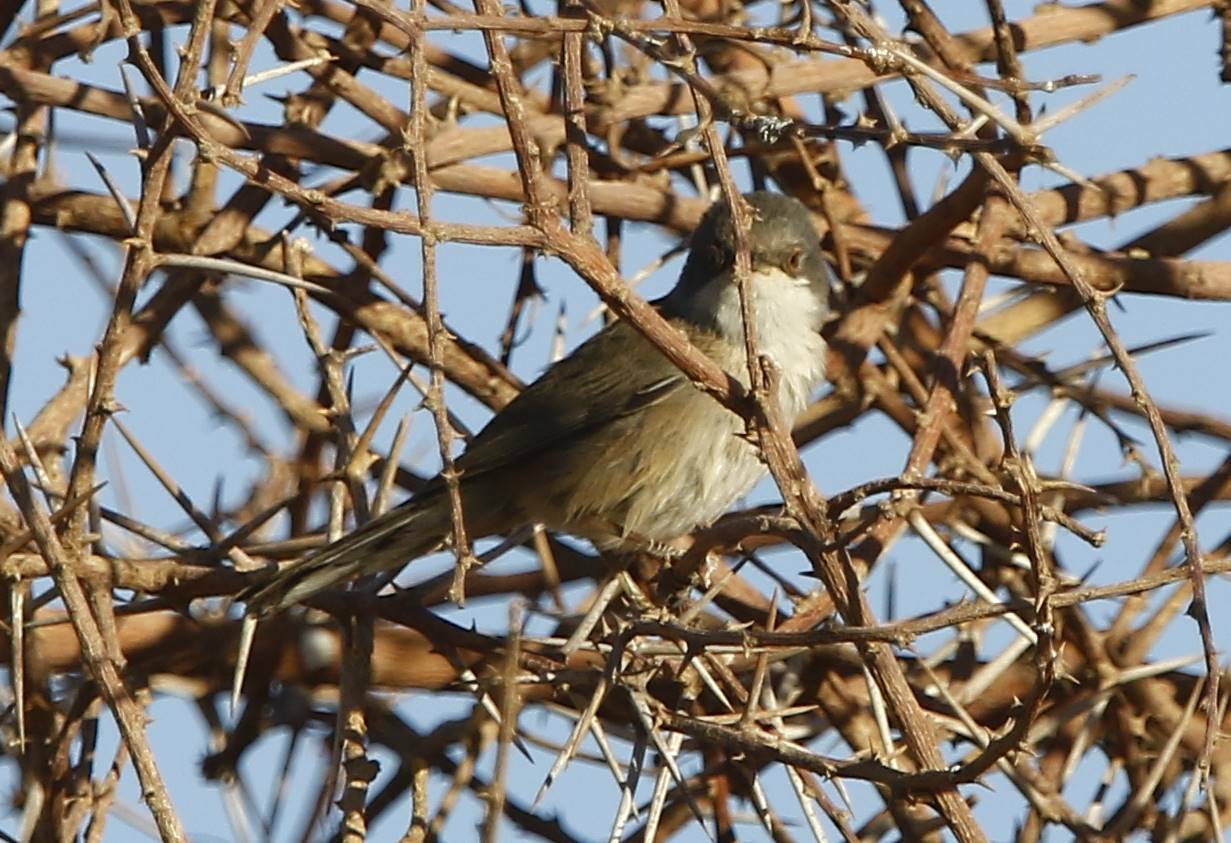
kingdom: Animalia
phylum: Chordata
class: Aves
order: Passeriformes
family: Sylviidae
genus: Curruca
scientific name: Curruca melanocephala
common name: Sardinian warbler
